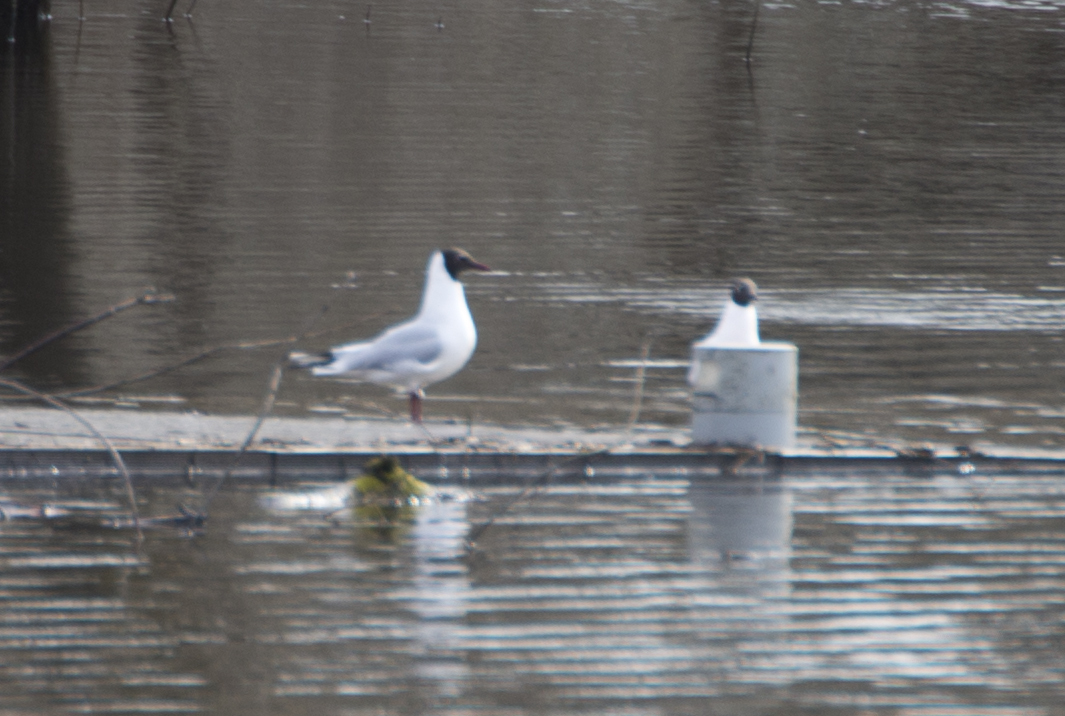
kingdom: Animalia
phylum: Chordata
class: Aves
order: Charadriiformes
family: Laridae
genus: Chroicocephalus
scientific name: Chroicocephalus ridibundus
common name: Black-headed gull
